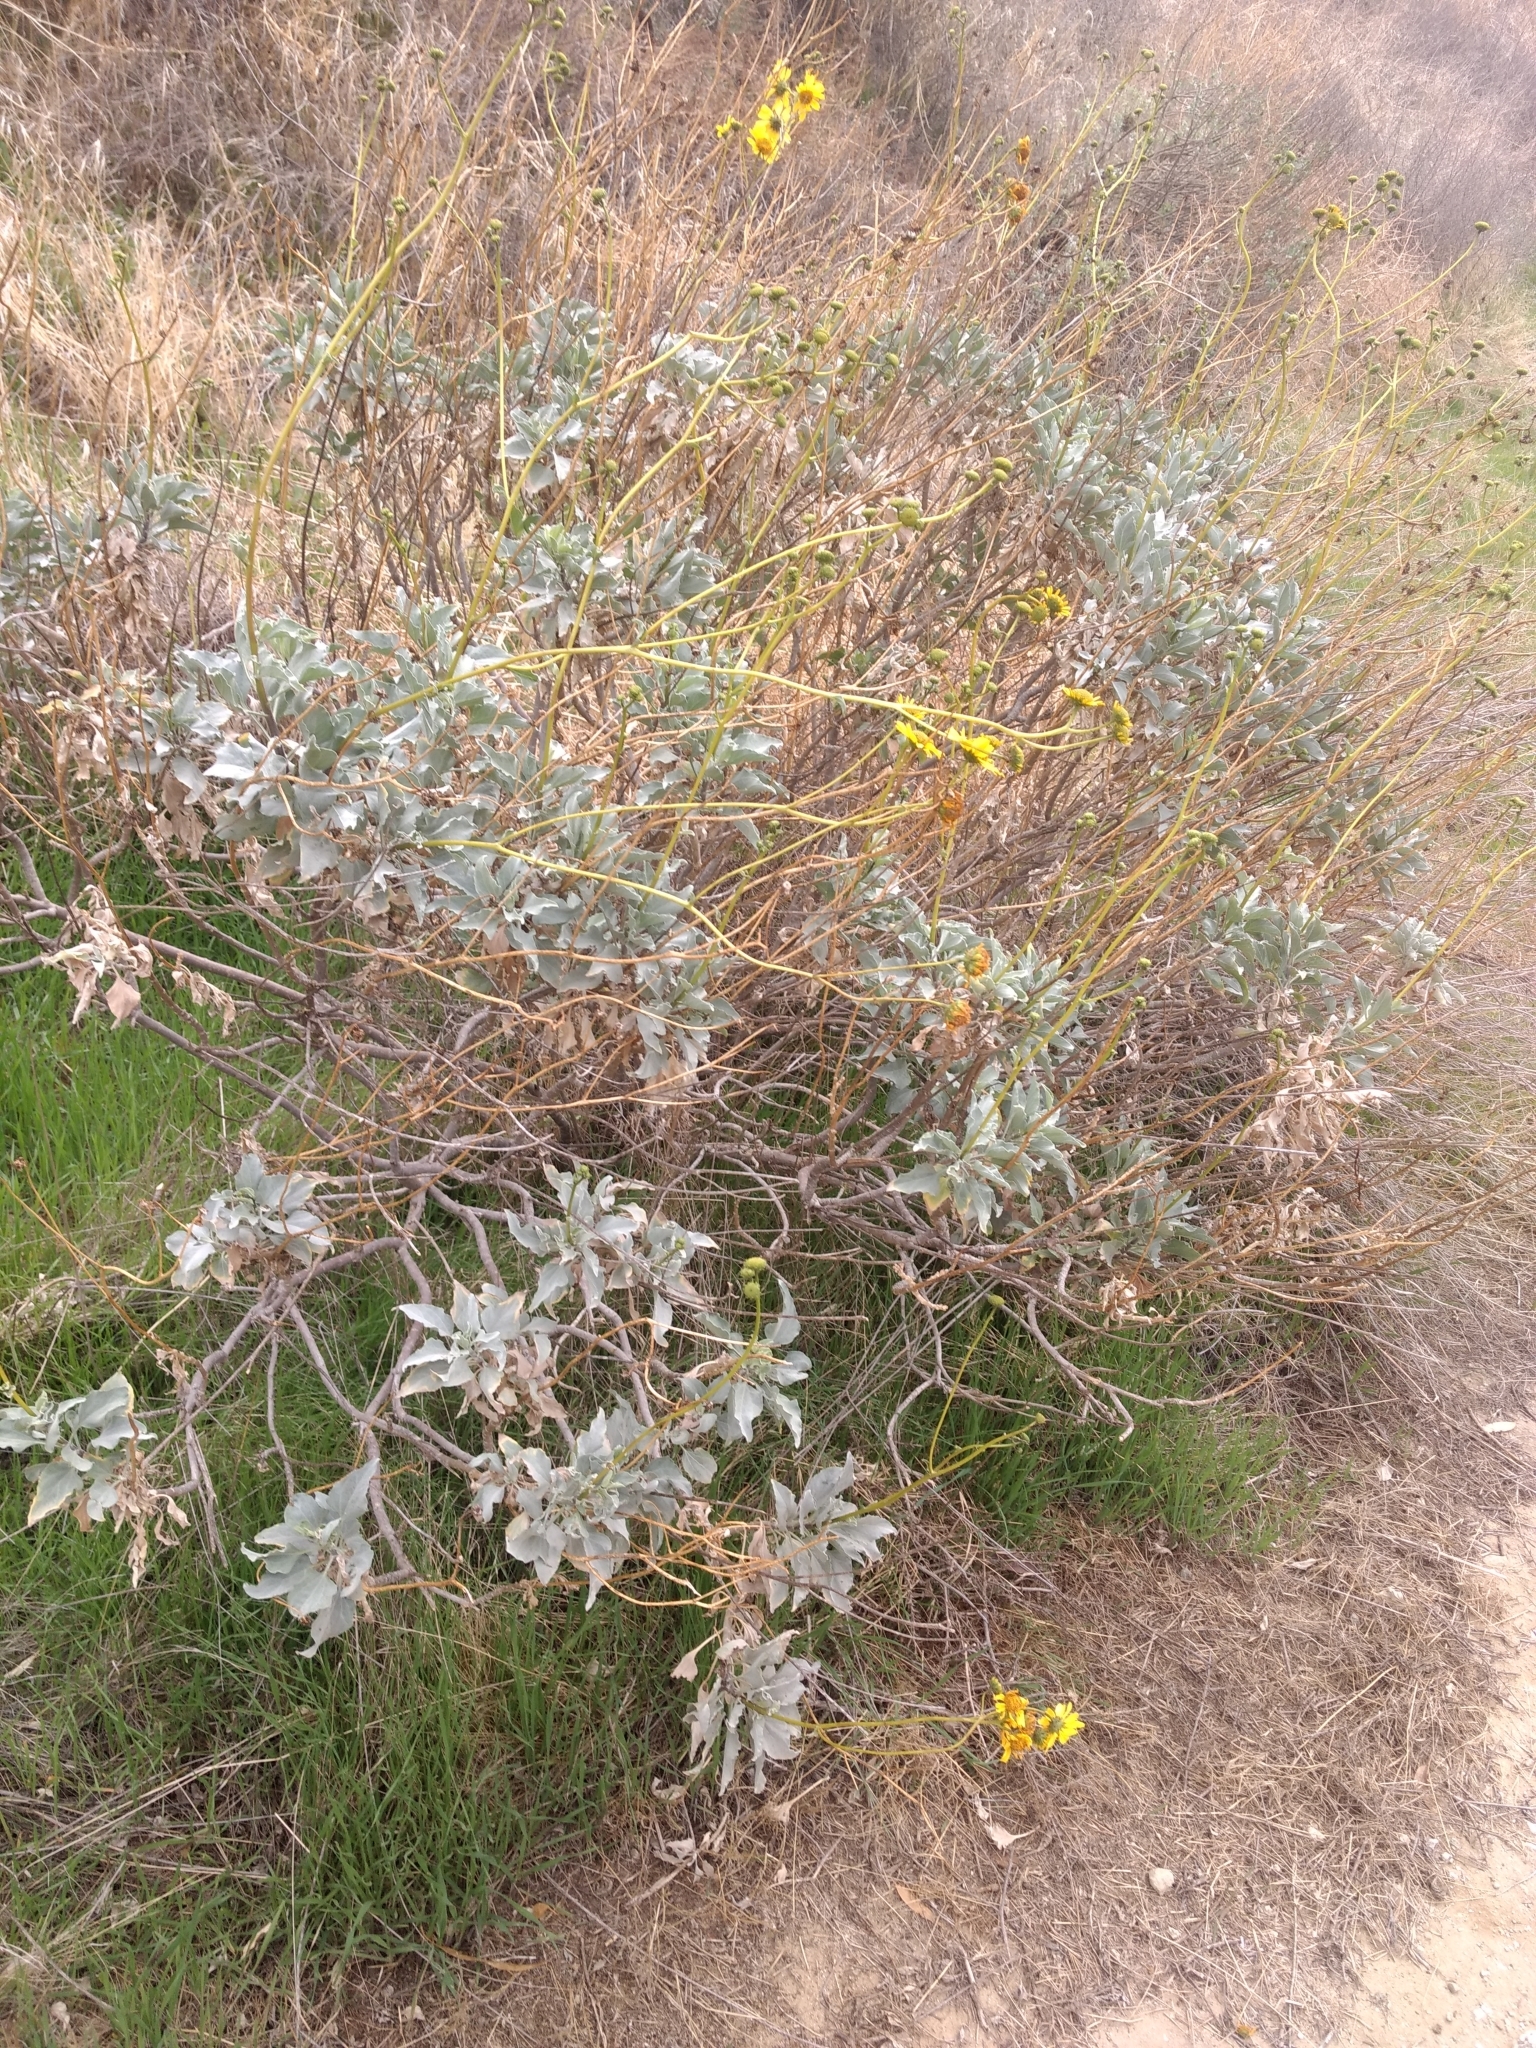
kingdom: Plantae
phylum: Tracheophyta
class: Magnoliopsida
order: Asterales
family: Asteraceae
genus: Encelia
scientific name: Encelia farinosa
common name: Brittlebush
